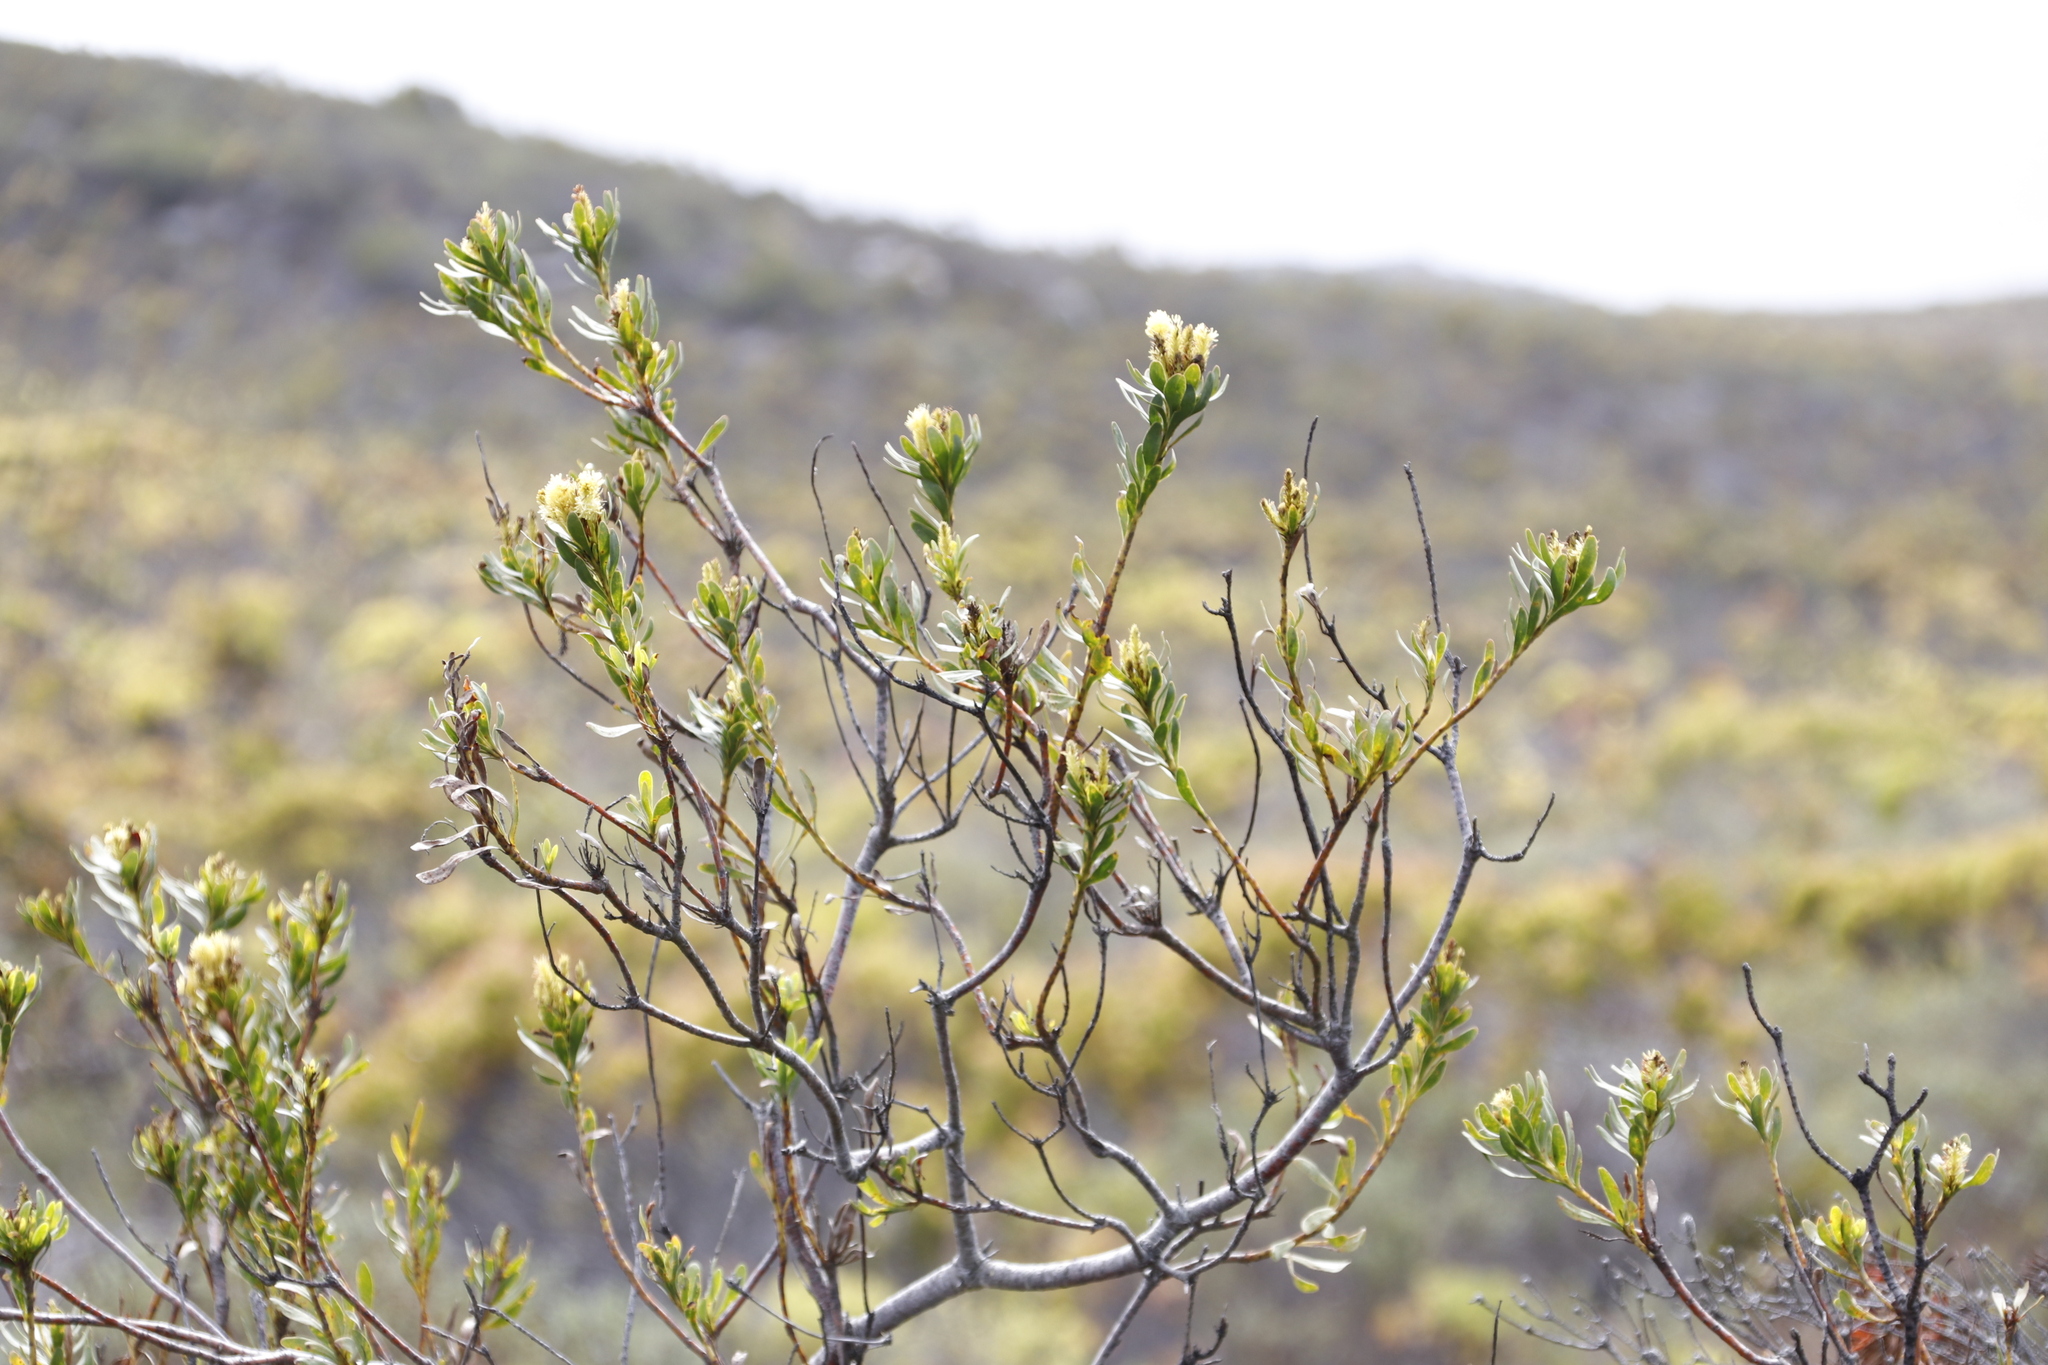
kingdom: Plantae
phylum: Tracheophyta
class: Magnoliopsida
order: Proteales
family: Proteaceae
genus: Aulax
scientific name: Aulax umbellata
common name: Broad-leaf featherbush
